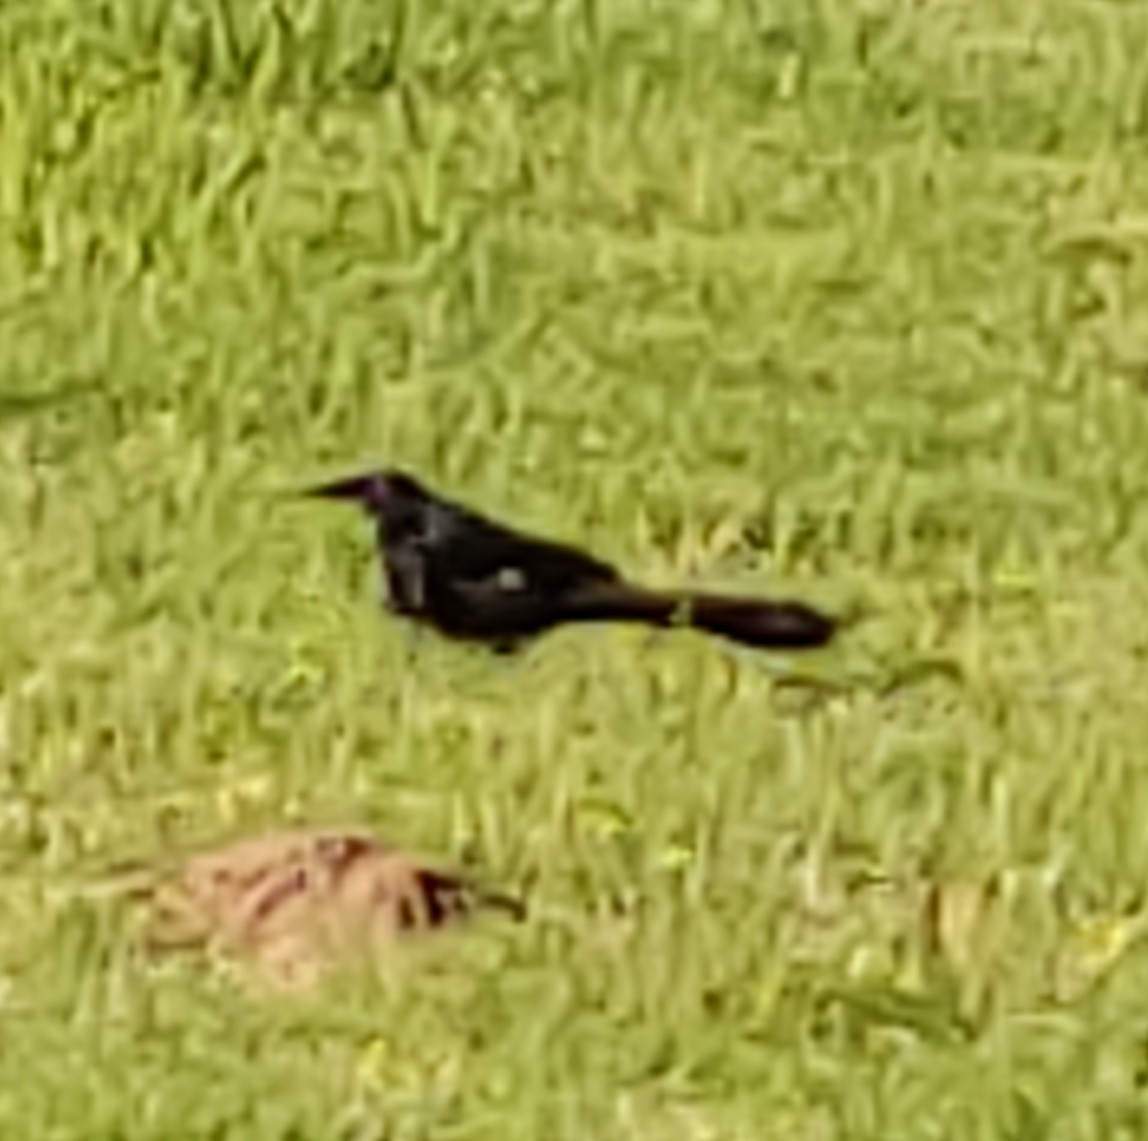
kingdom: Animalia
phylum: Chordata
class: Aves
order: Passeriformes
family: Icteridae
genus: Quiscalus
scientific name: Quiscalus mexicanus
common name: Great-tailed grackle
